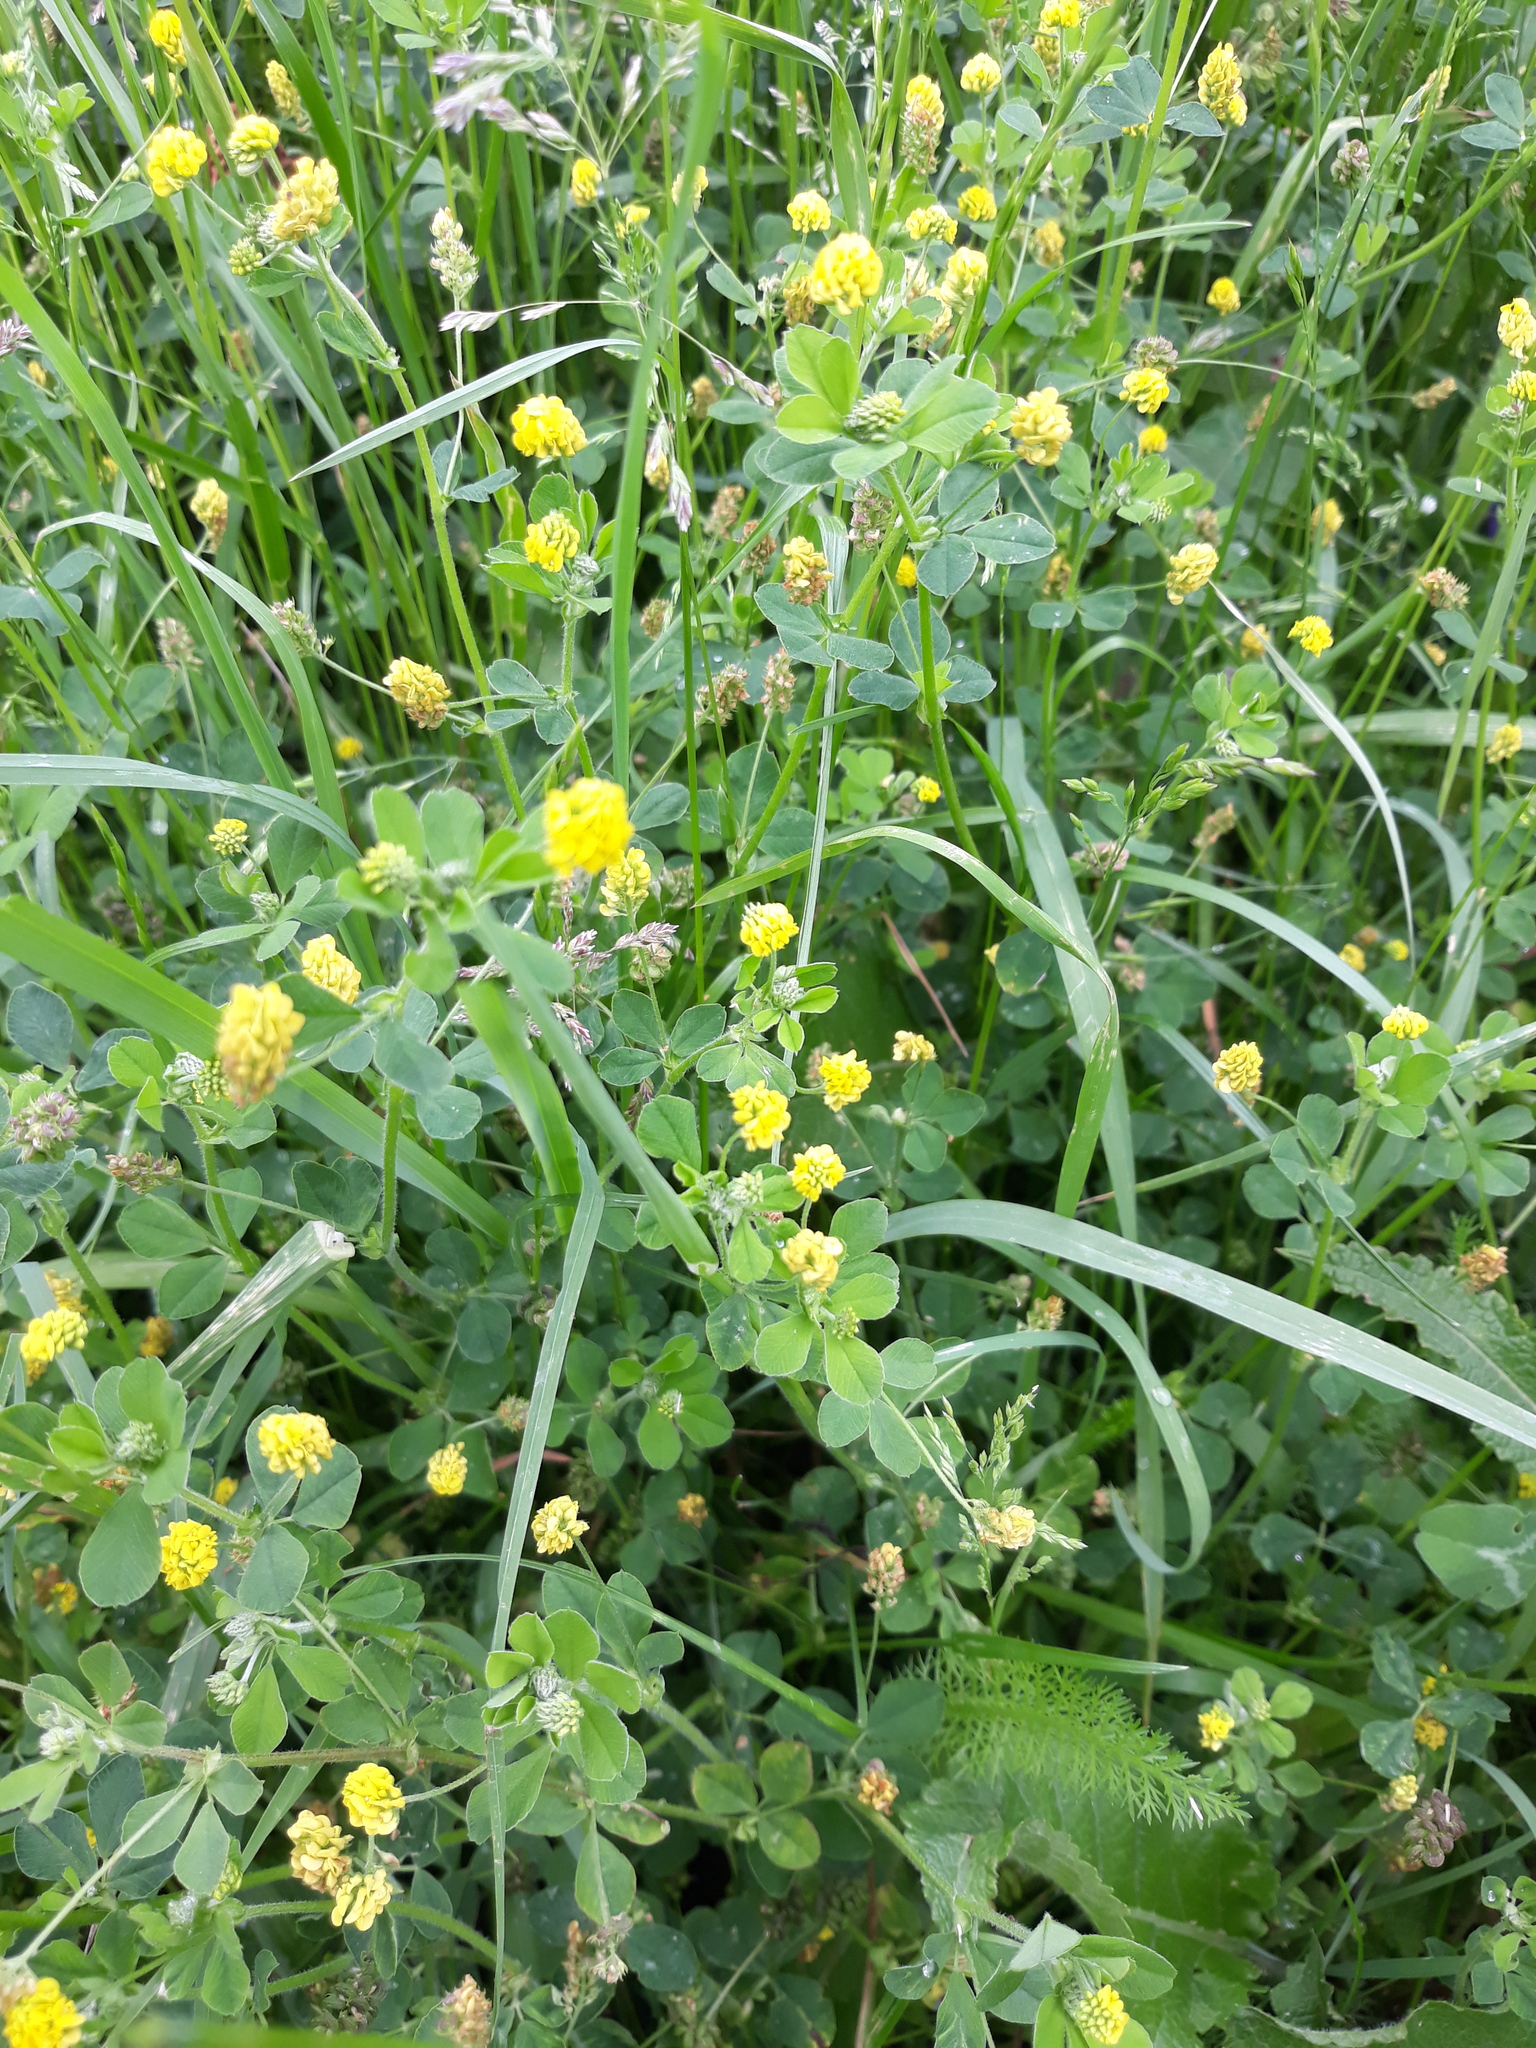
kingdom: Plantae
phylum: Tracheophyta
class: Magnoliopsida
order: Fabales
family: Fabaceae
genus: Medicago
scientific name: Medicago lupulina
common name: Black medick
